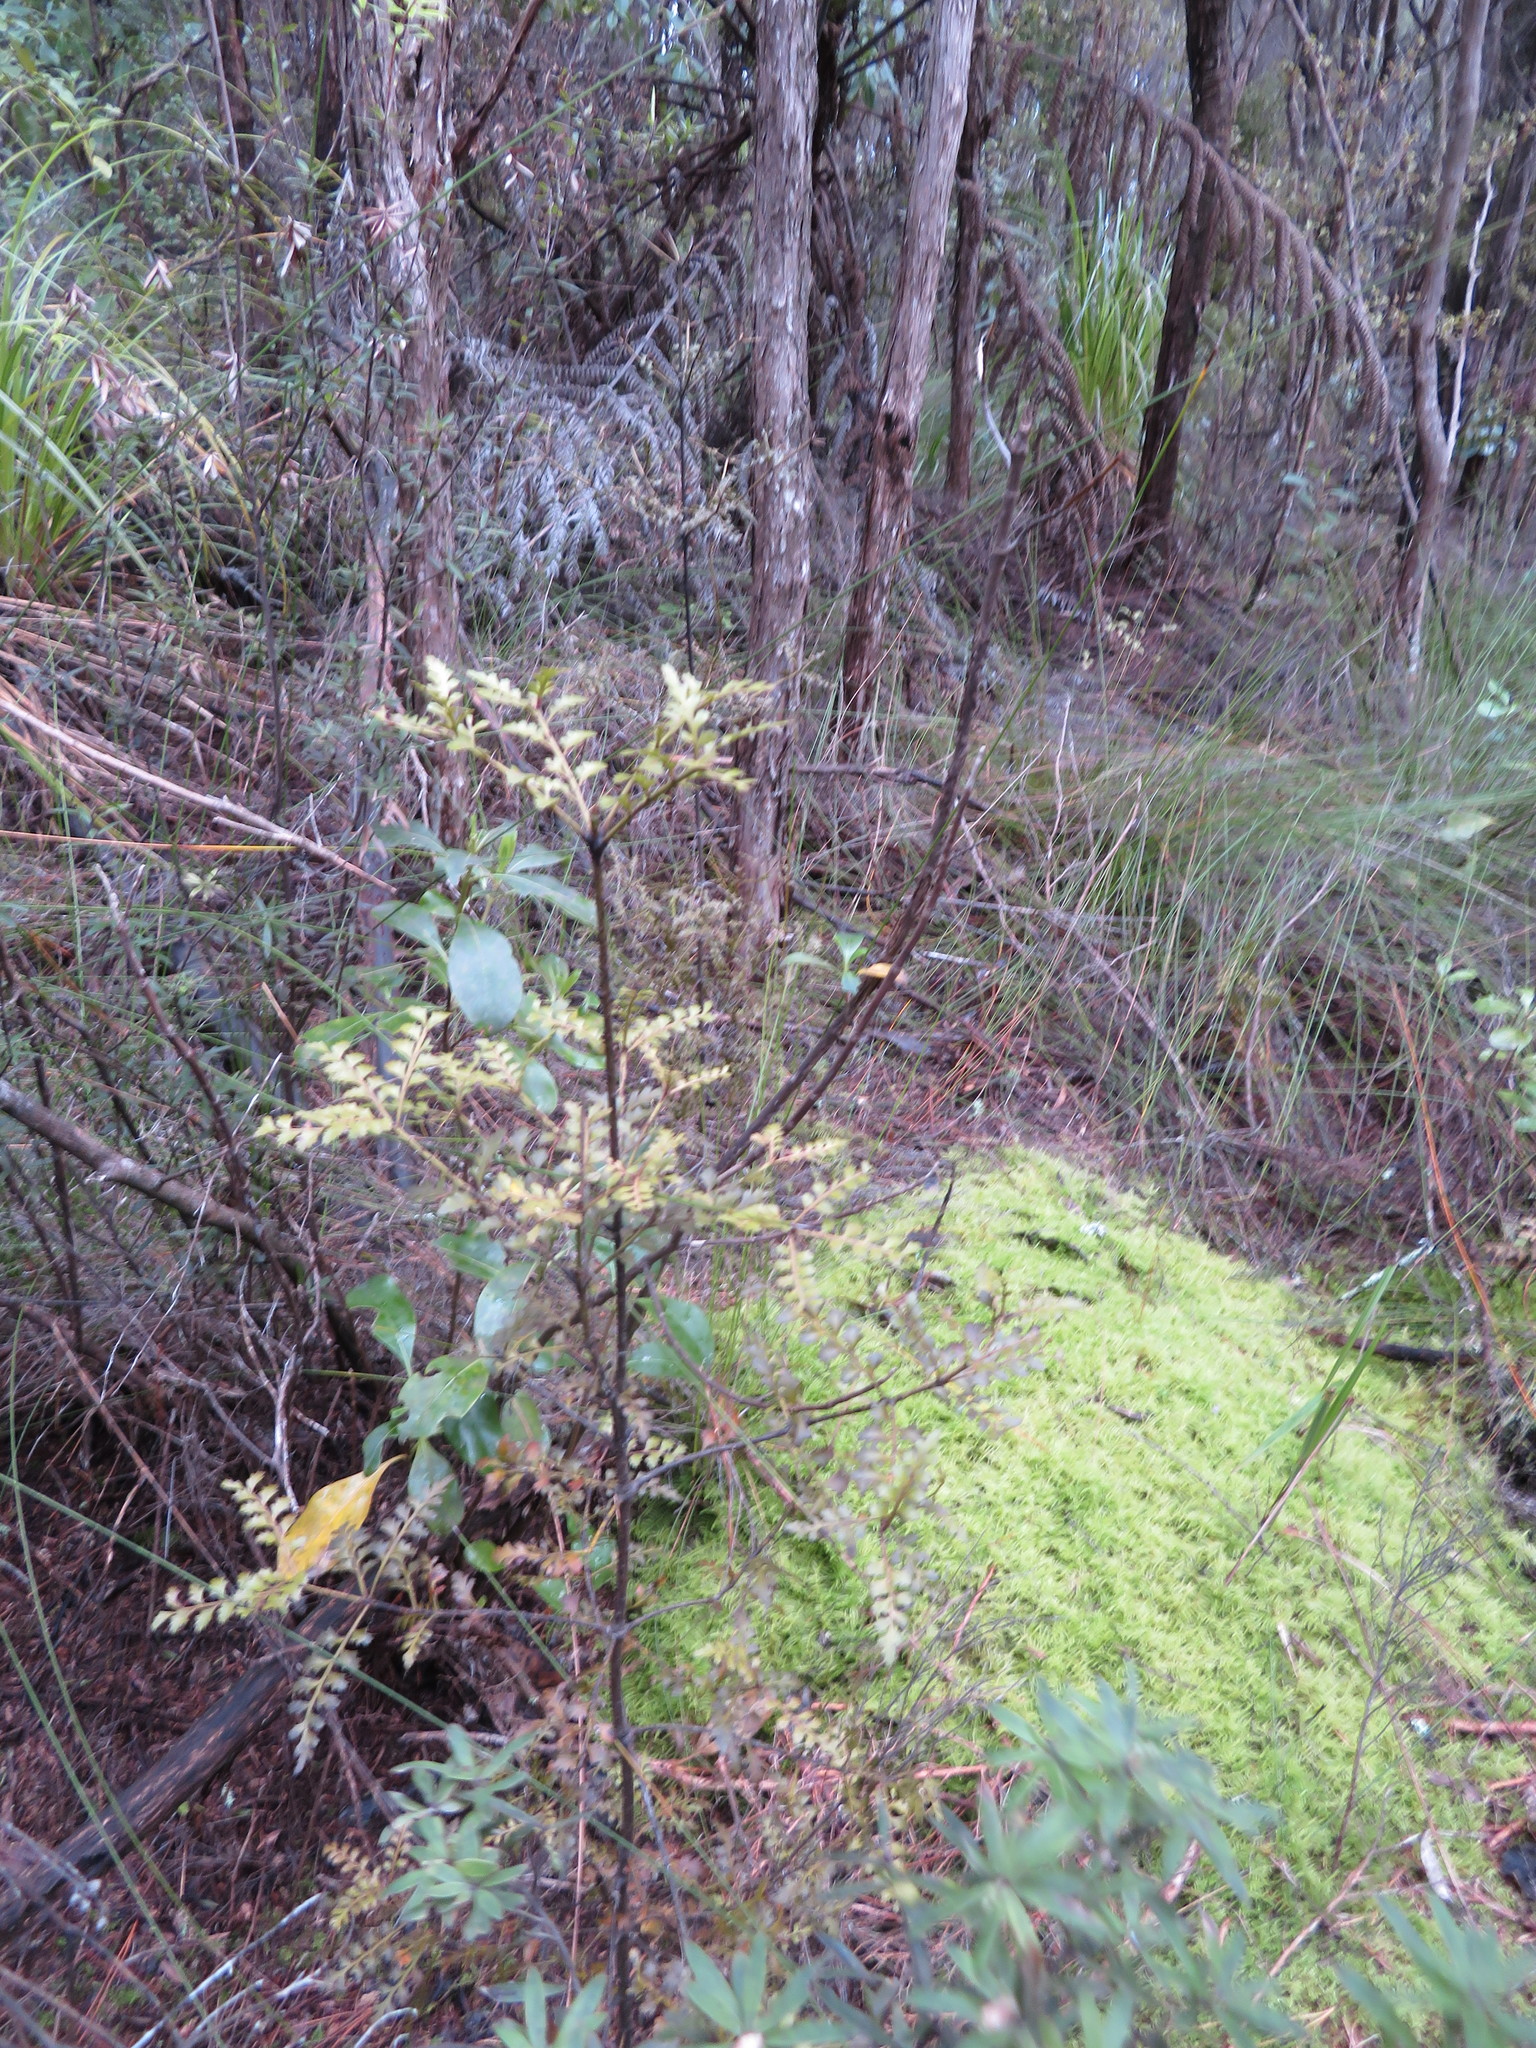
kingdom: Plantae
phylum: Tracheophyta
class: Pinopsida
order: Pinales
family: Phyllocladaceae
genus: Phyllocladus
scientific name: Phyllocladus trichomanoides
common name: Celery pine
